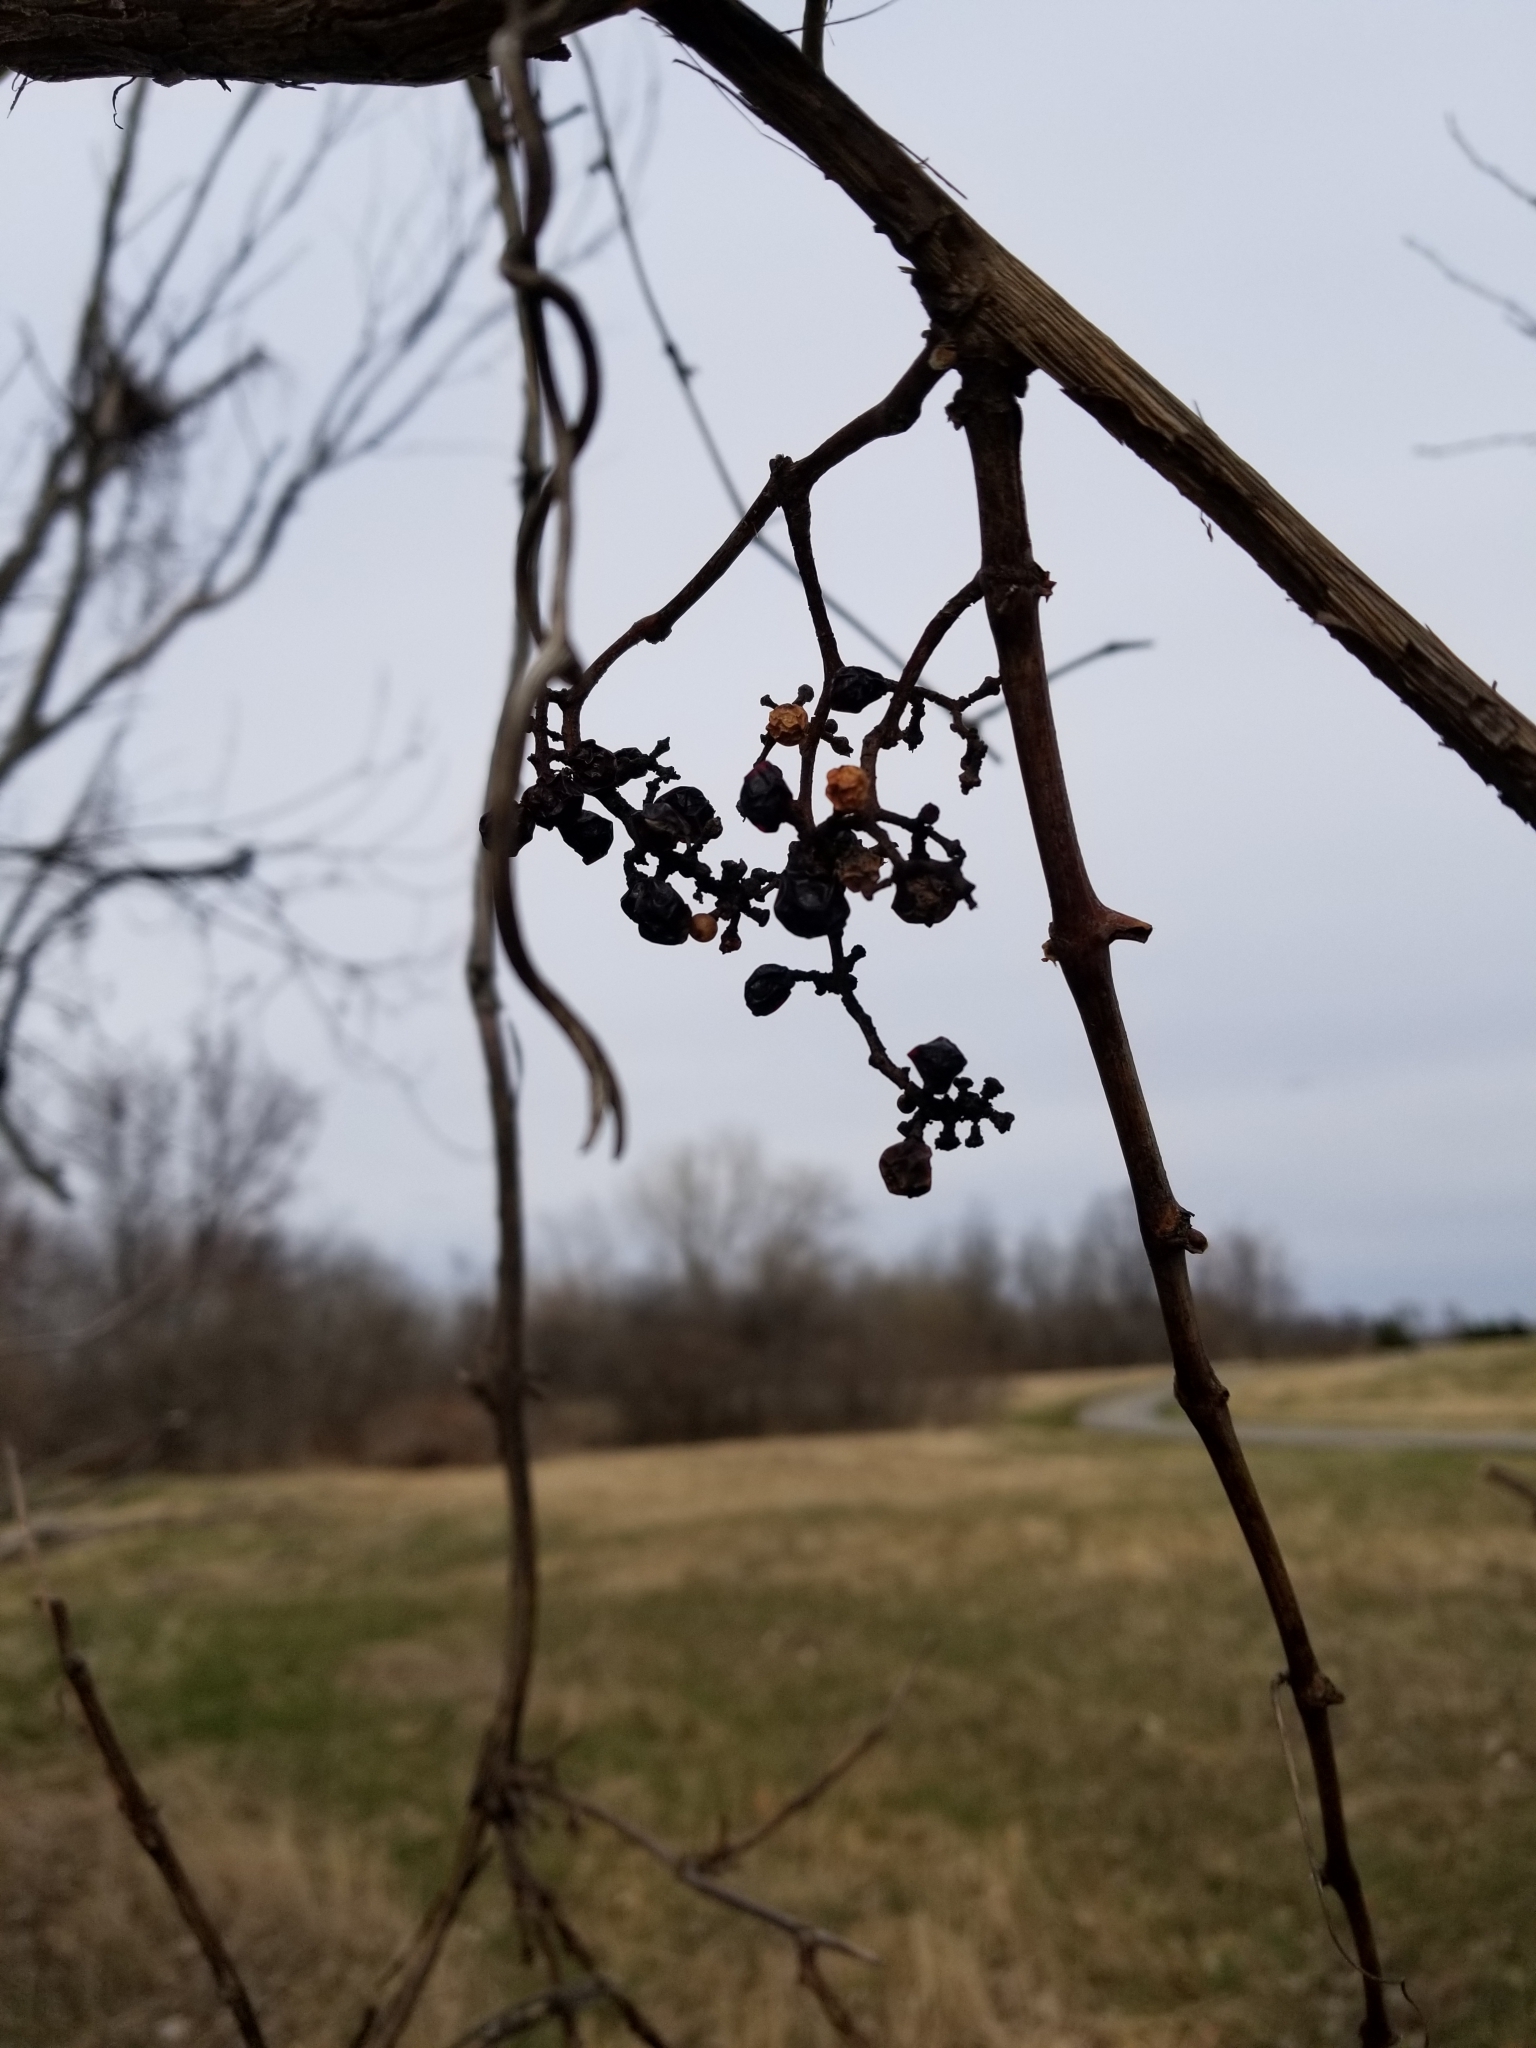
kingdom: Plantae
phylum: Tracheophyta
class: Magnoliopsida
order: Vitales
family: Vitaceae
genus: Vitis
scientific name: Vitis riparia
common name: Frost grape
